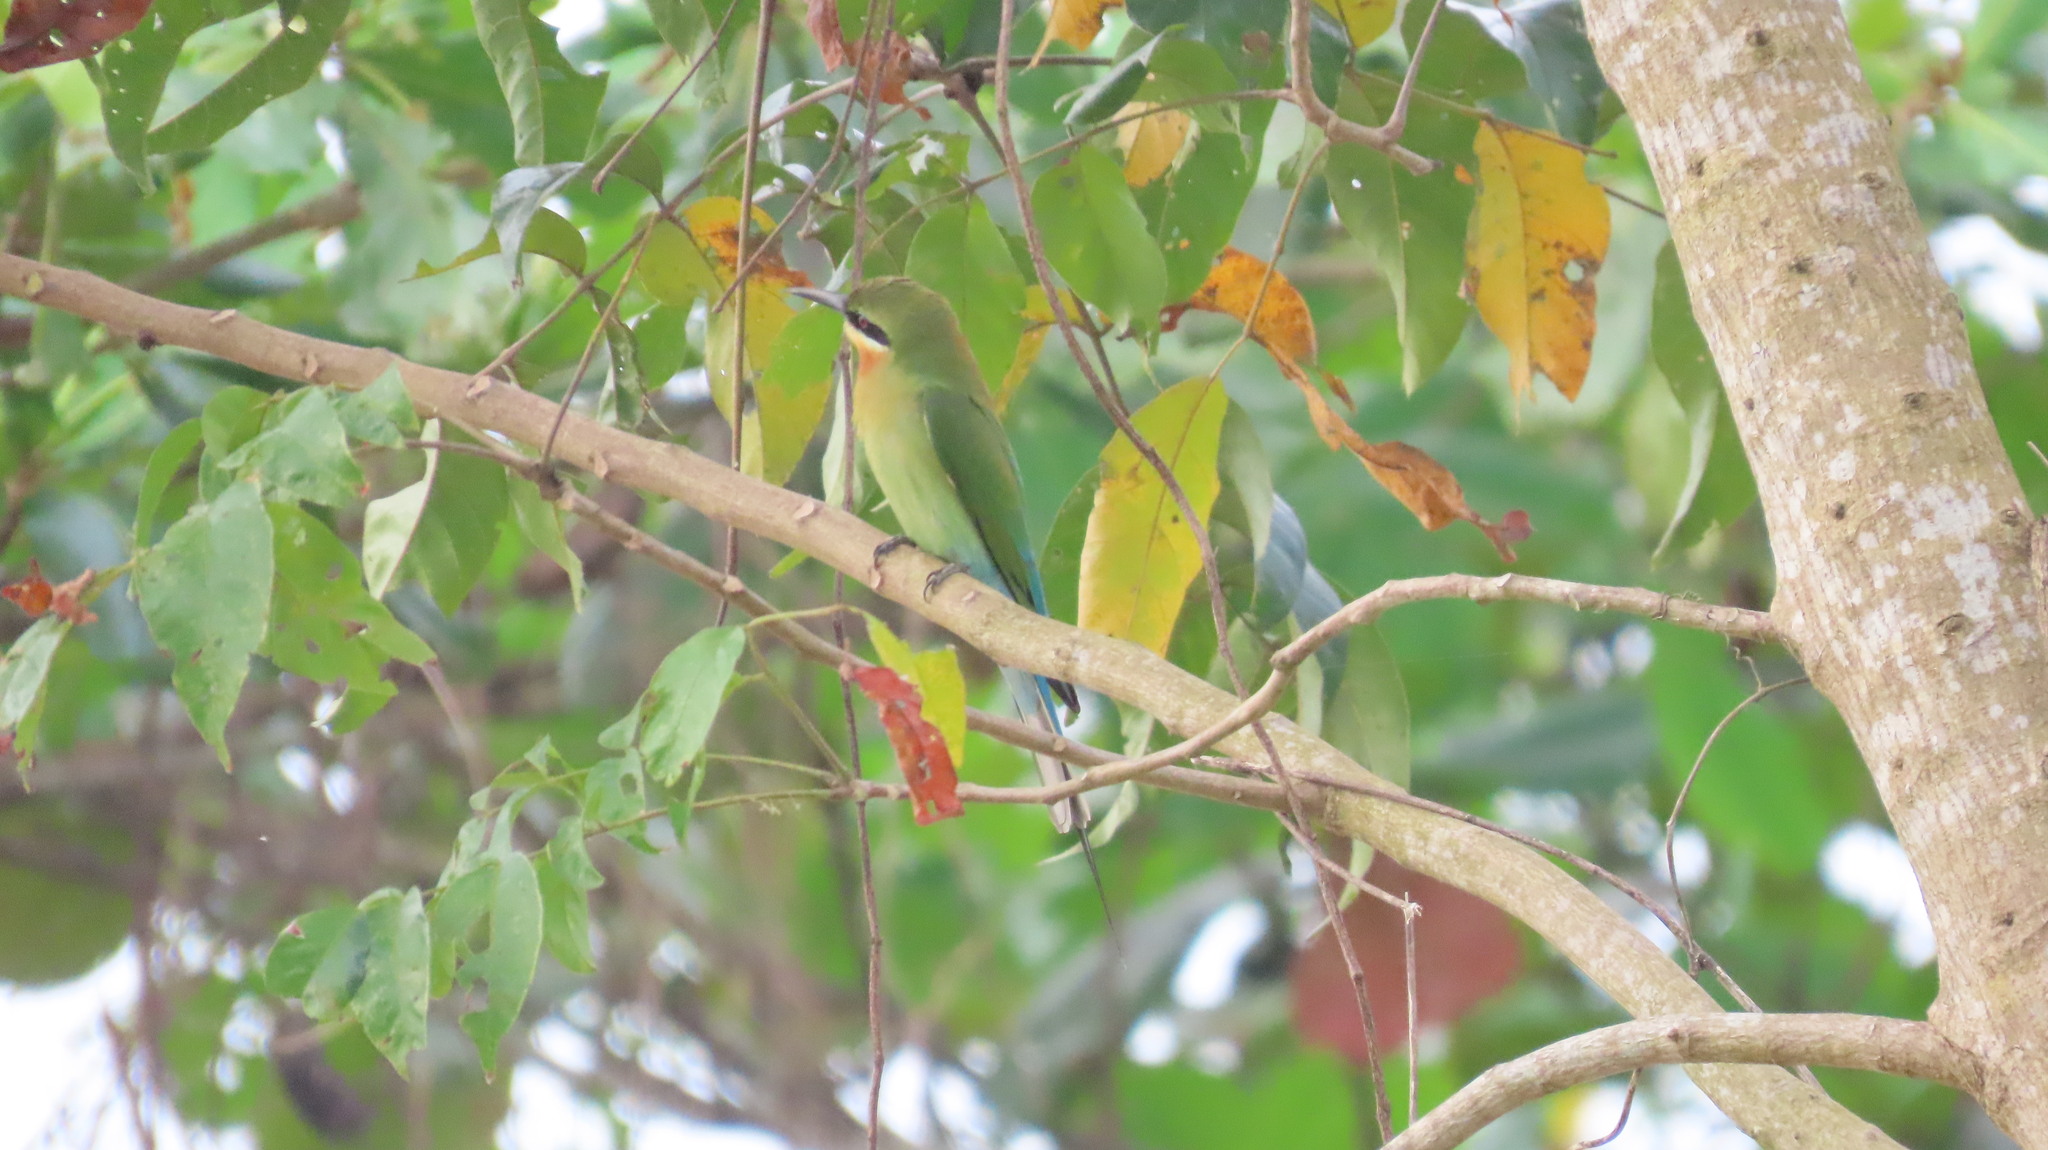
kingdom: Animalia
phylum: Chordata
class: Aves
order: Coraciiformes
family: Meropidae
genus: Merops
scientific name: Merops philippinus
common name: Blue-tailed bee-eater
